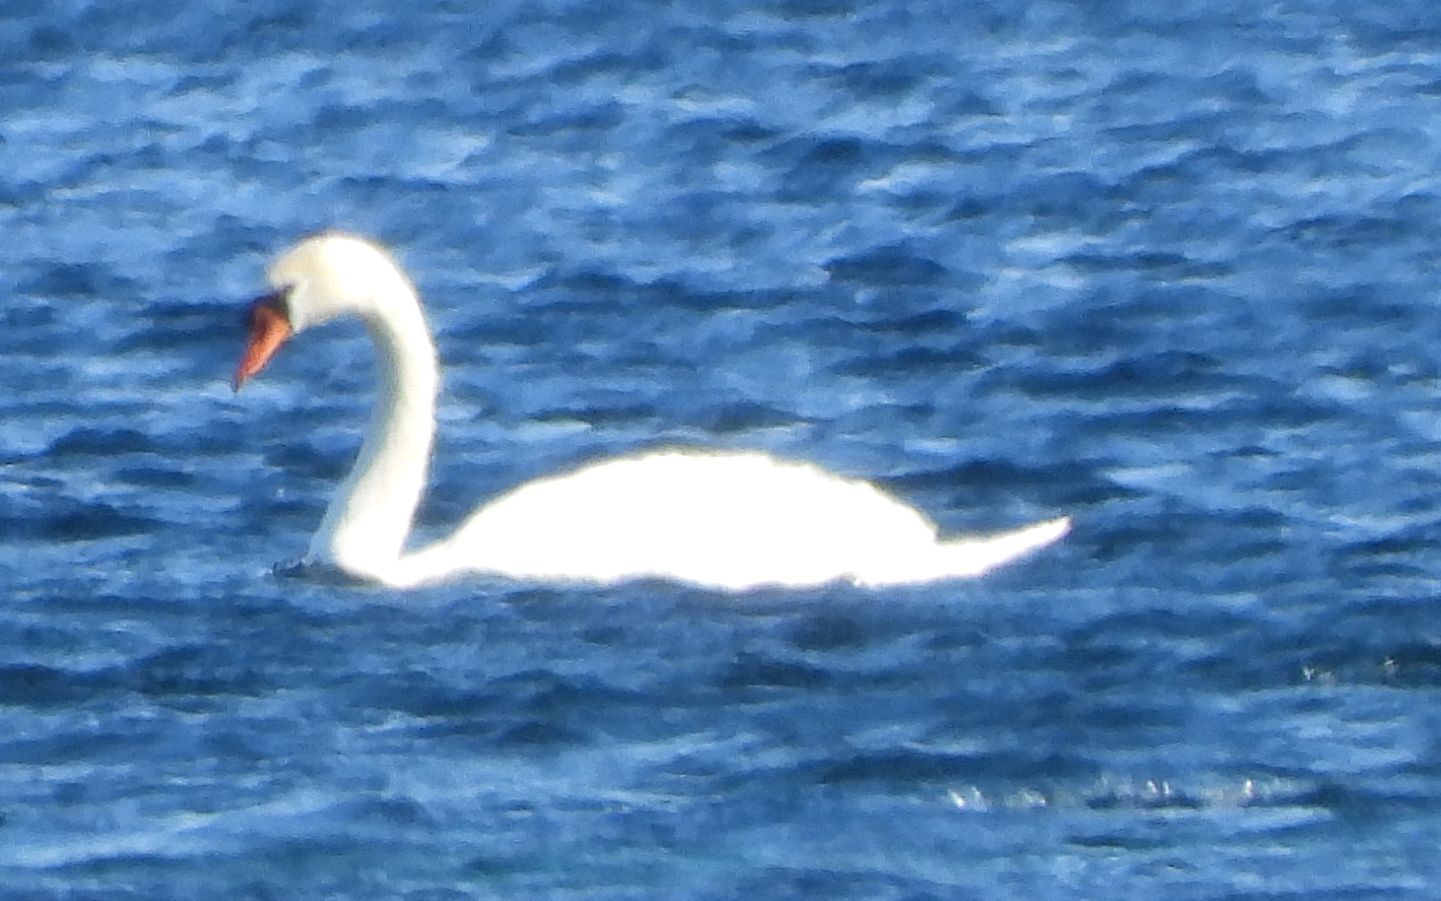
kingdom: Animalia
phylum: Chordata
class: Aves
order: Anseriformes
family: Anatidae
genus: Cygnus
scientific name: Cygnus olor
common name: Mute swan
